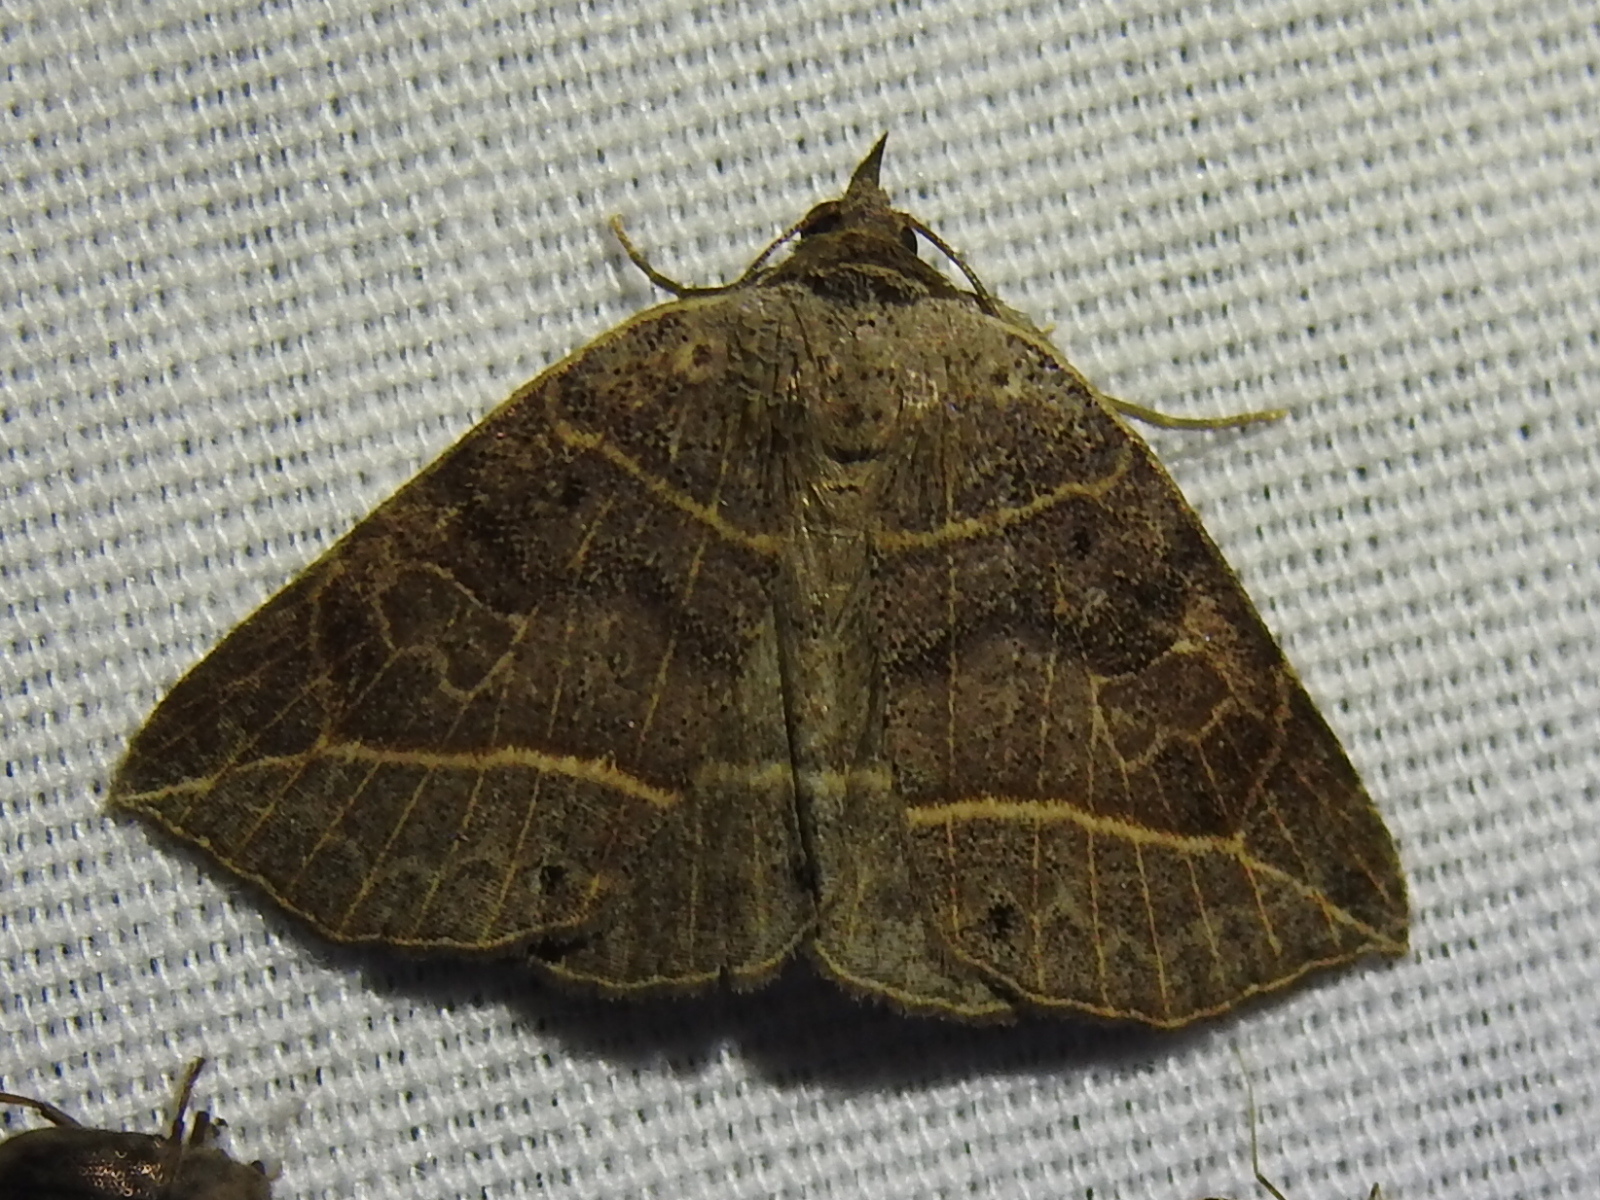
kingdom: Animalia
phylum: Arthropoda
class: Insecta
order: Lepidoptera
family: Erebidae
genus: Isogona
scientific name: Isogona tenuis
